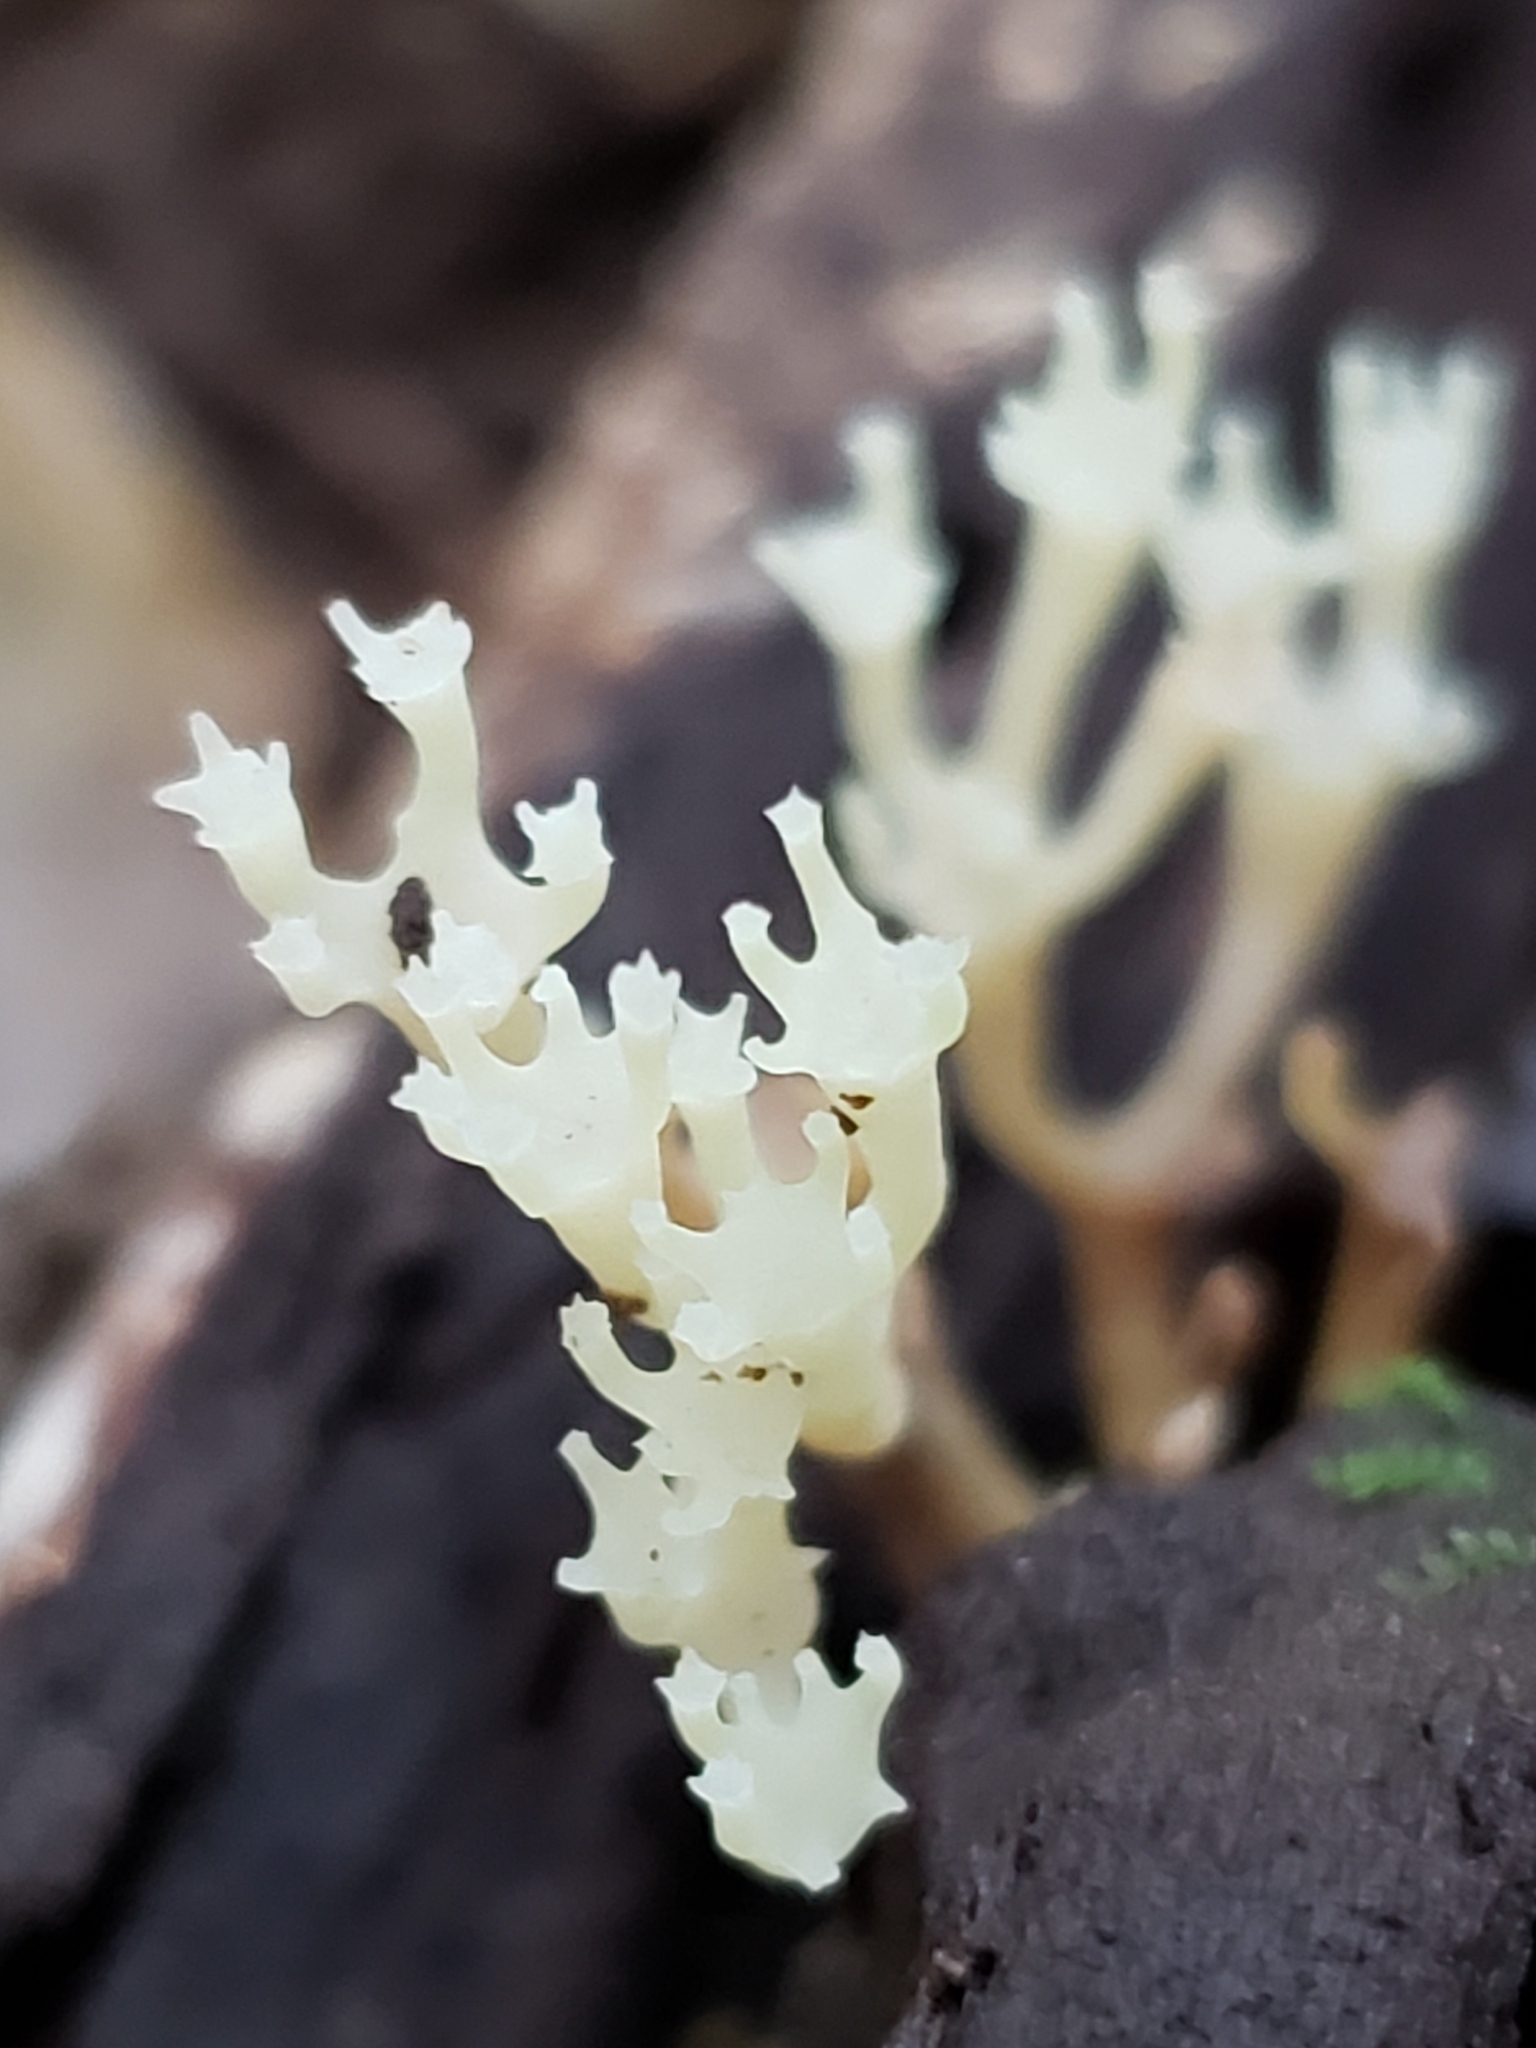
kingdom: Fungi
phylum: Basidiomycota
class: Agaricomycetes
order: Russulales
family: Auriscalpiaceae
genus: Artomyces
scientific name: Artomyces pyxidatus
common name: Crown-tipped coral fungus
